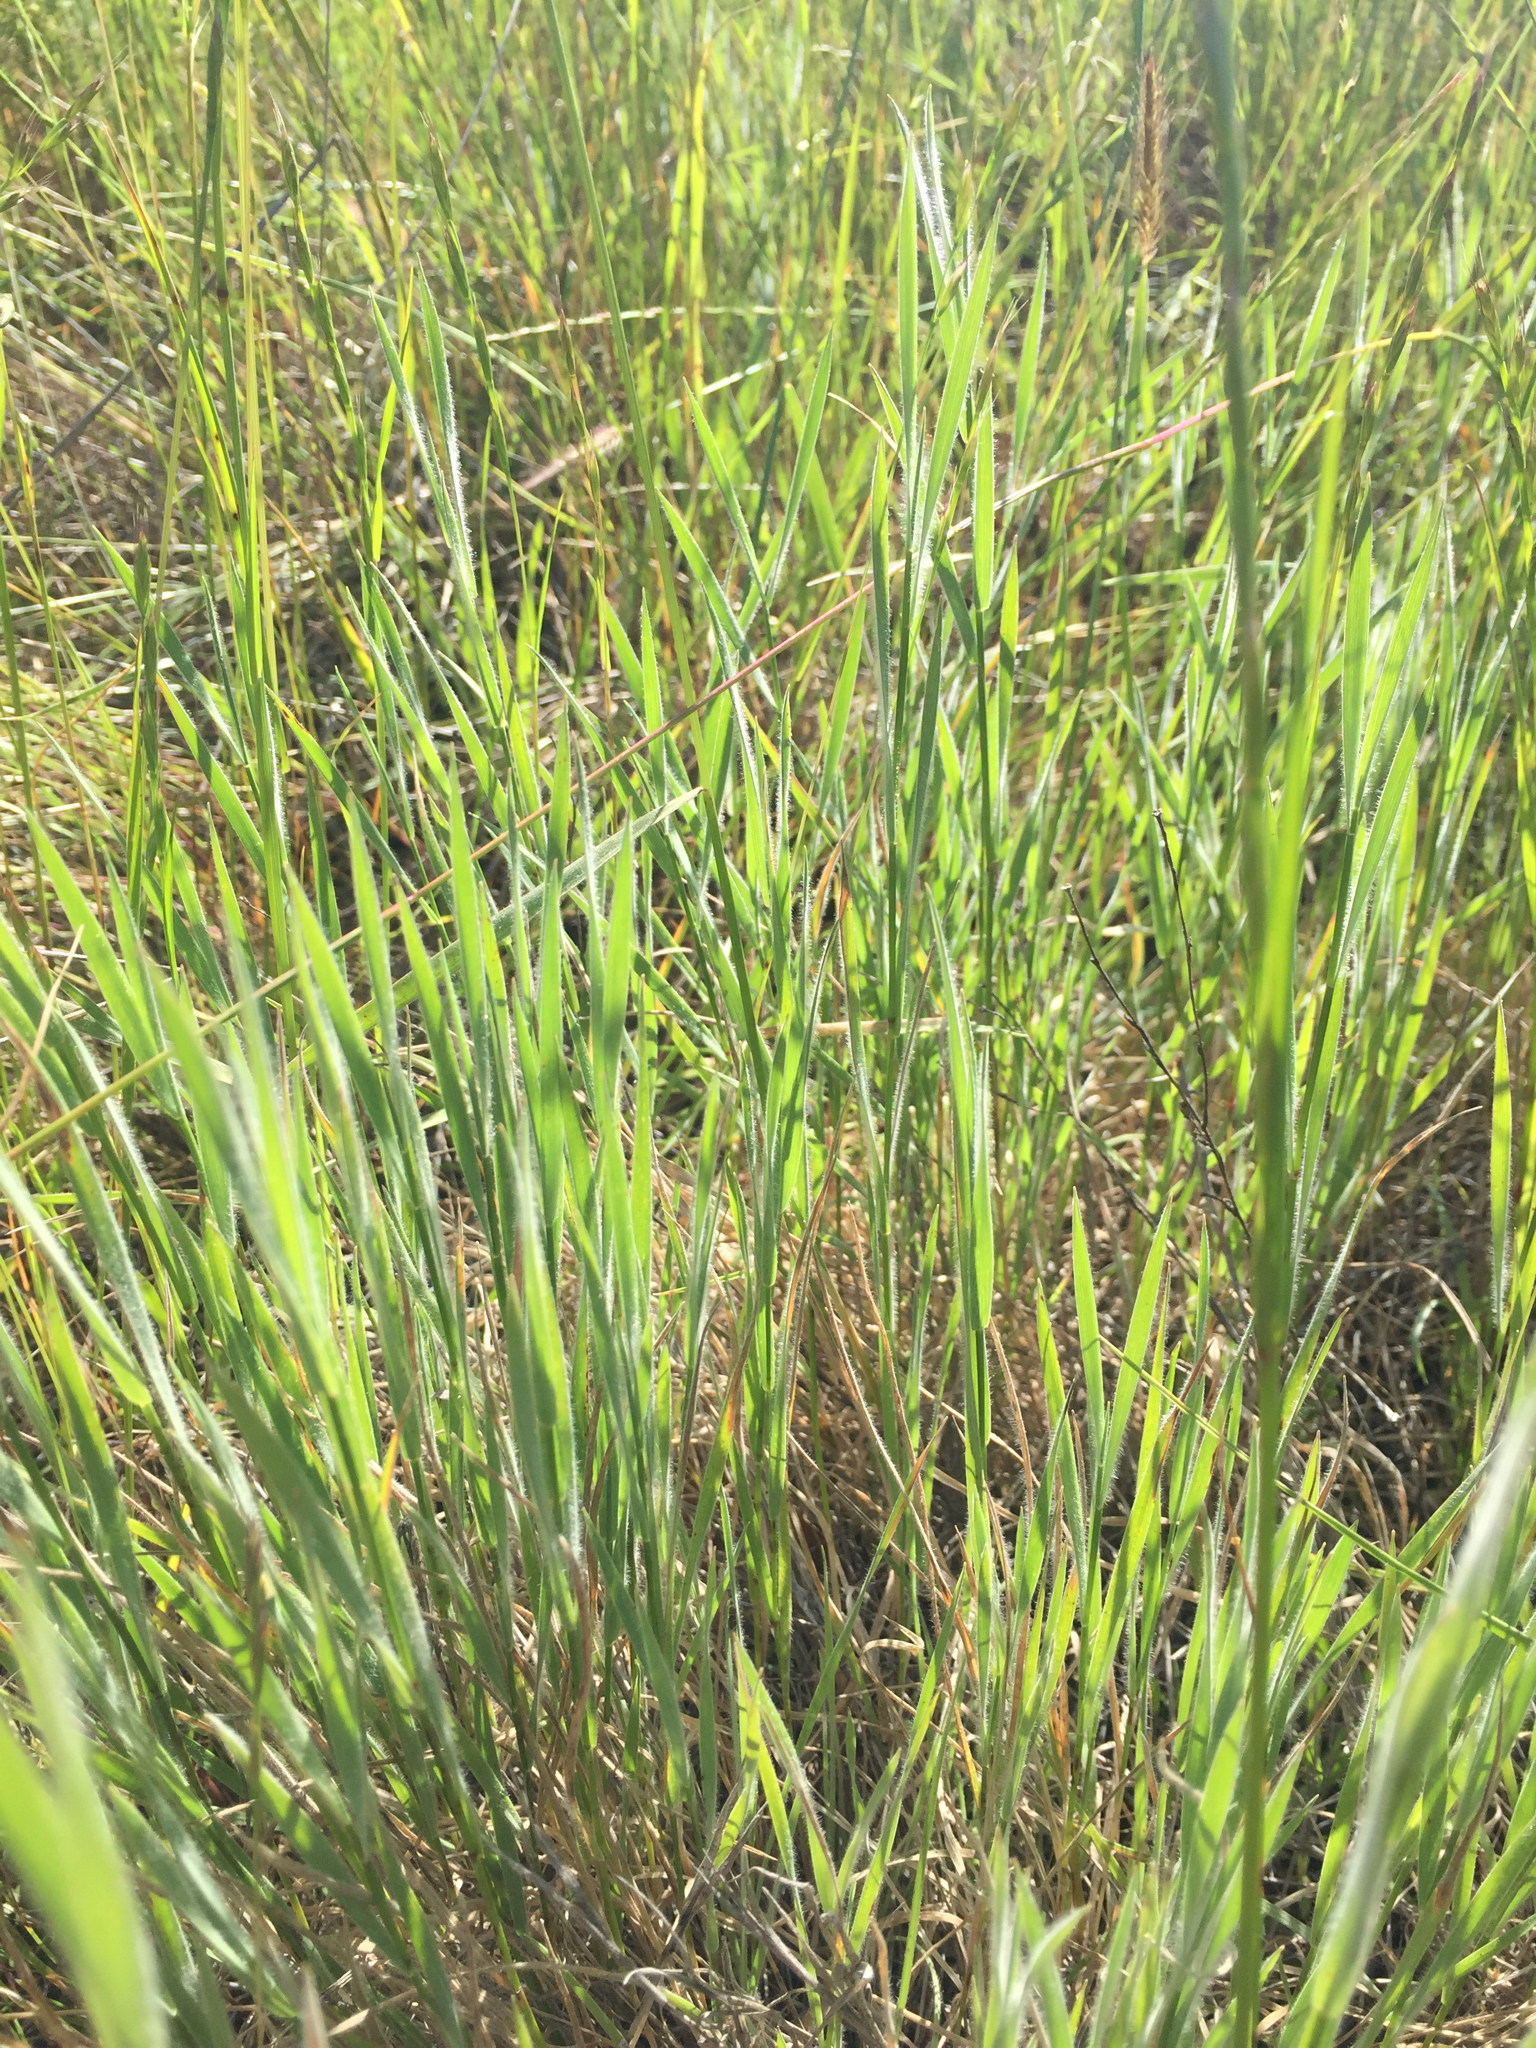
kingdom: Plantae
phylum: Tracheophyta
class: Liliopsida
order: Poales
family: Poaceae
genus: Hordeum
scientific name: Hordeum brachyantherum
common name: Meadow barley
